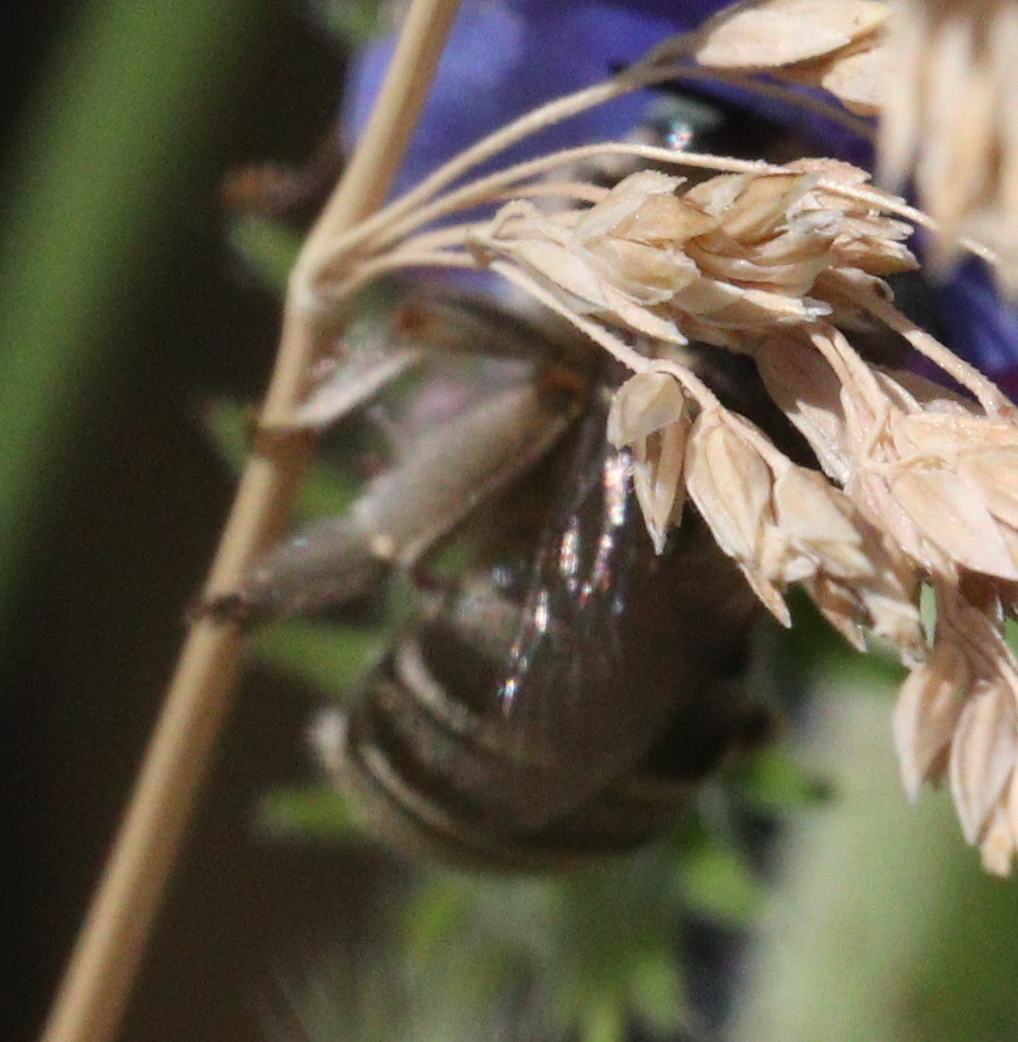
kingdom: Animalia
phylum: Arthropoda
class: Insecta
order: Hymenoptera
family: Apidae
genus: Anthophora
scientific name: Anthophora bimaculata
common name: Green-eyed flower bee
